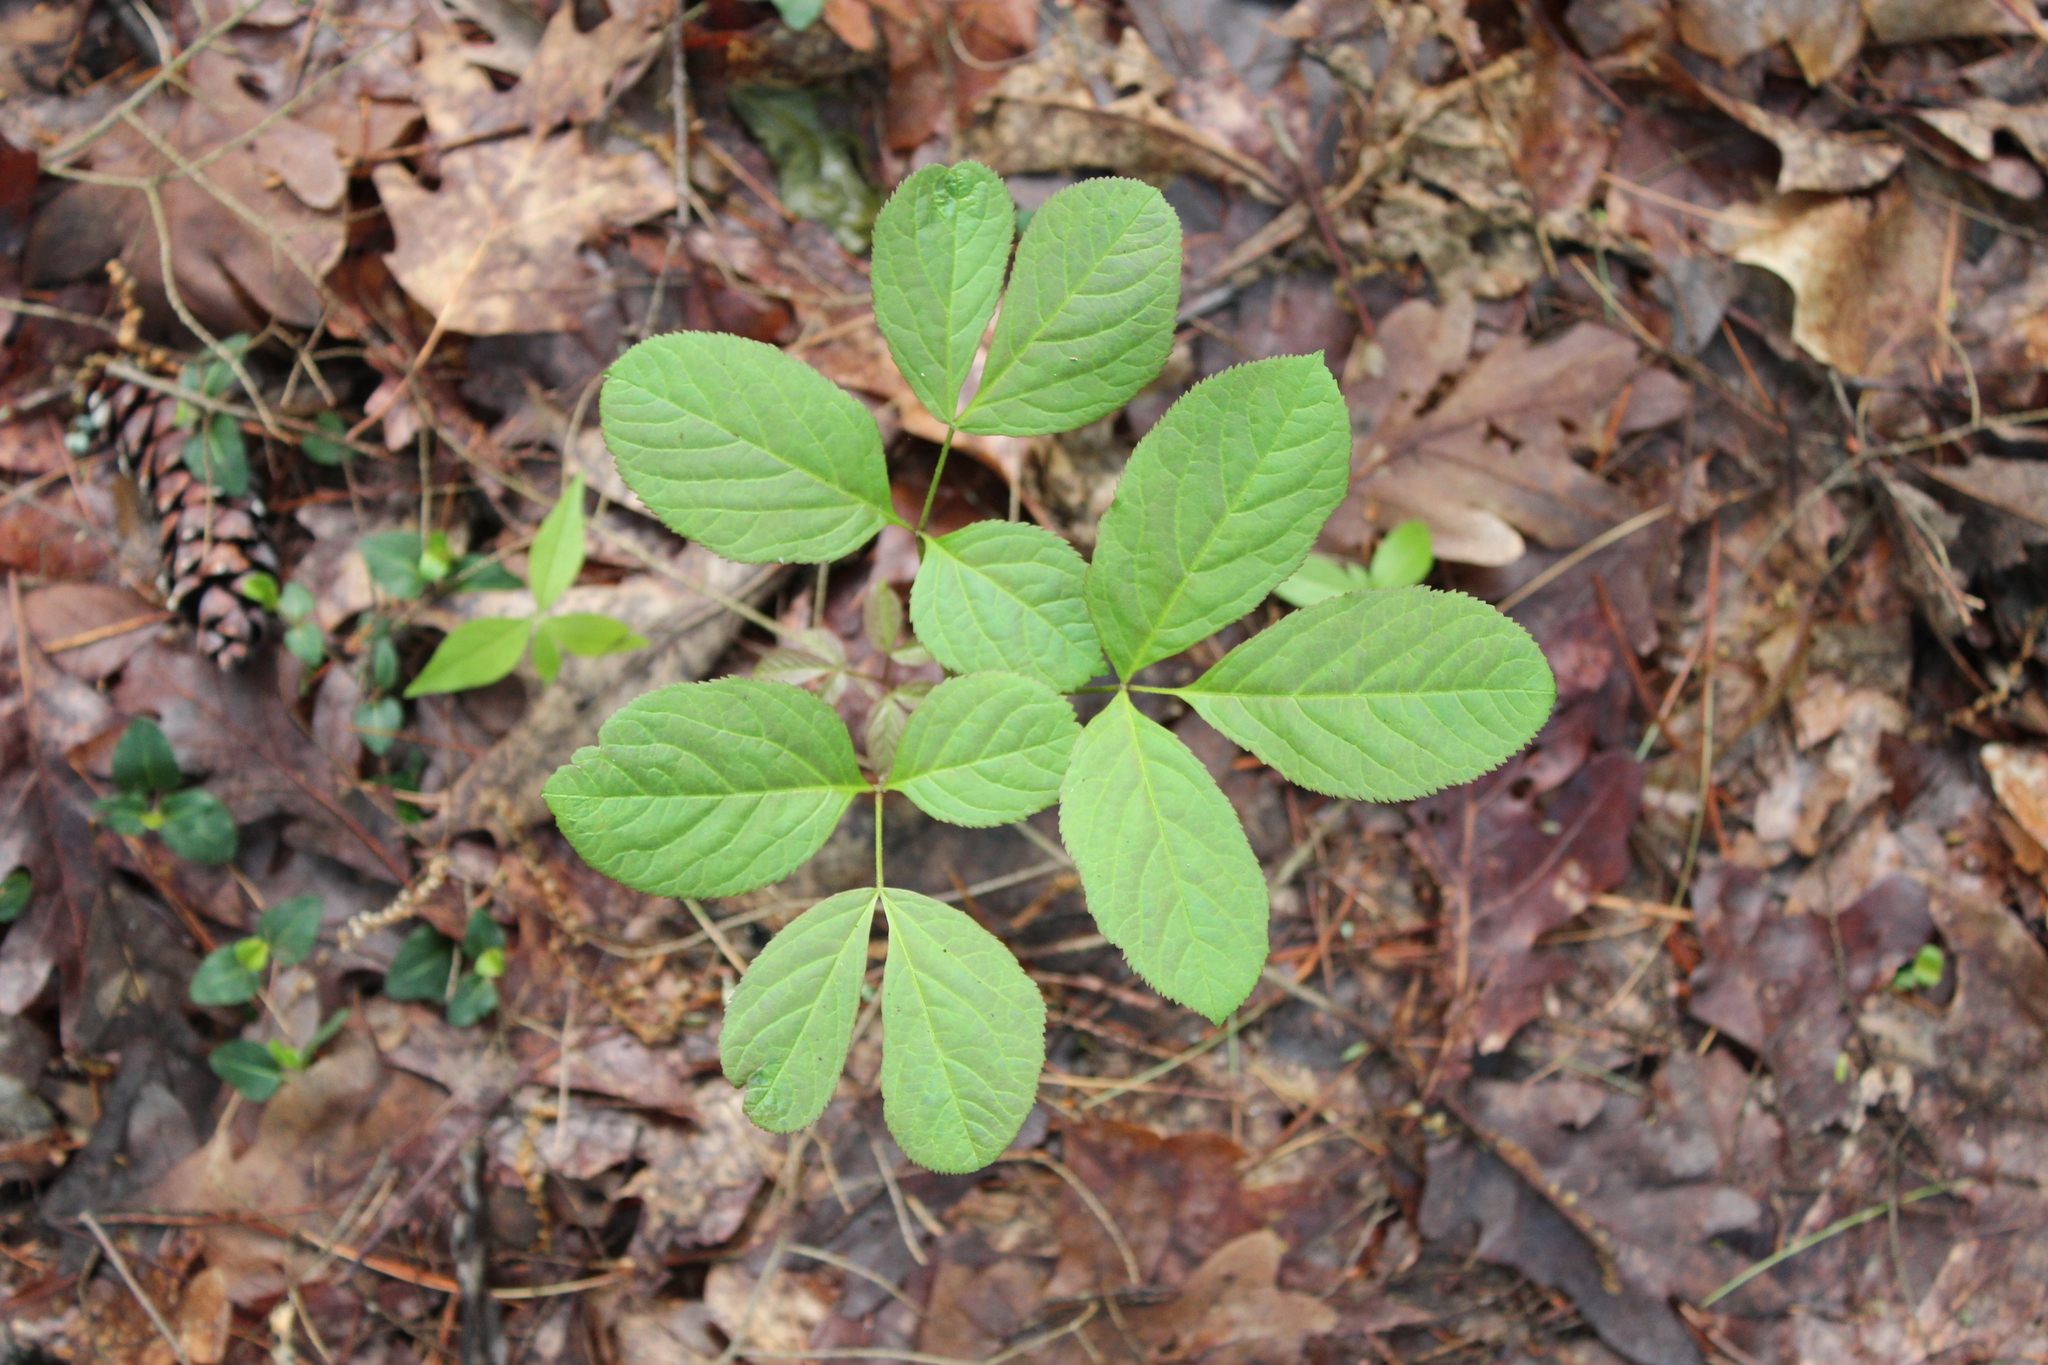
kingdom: Plantae
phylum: Tracheophyta
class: Magnoliopsida
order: Apiales
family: Araliaceae
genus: Aralia
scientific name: Aralia nudicaulis
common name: Wild sarsaparilla
